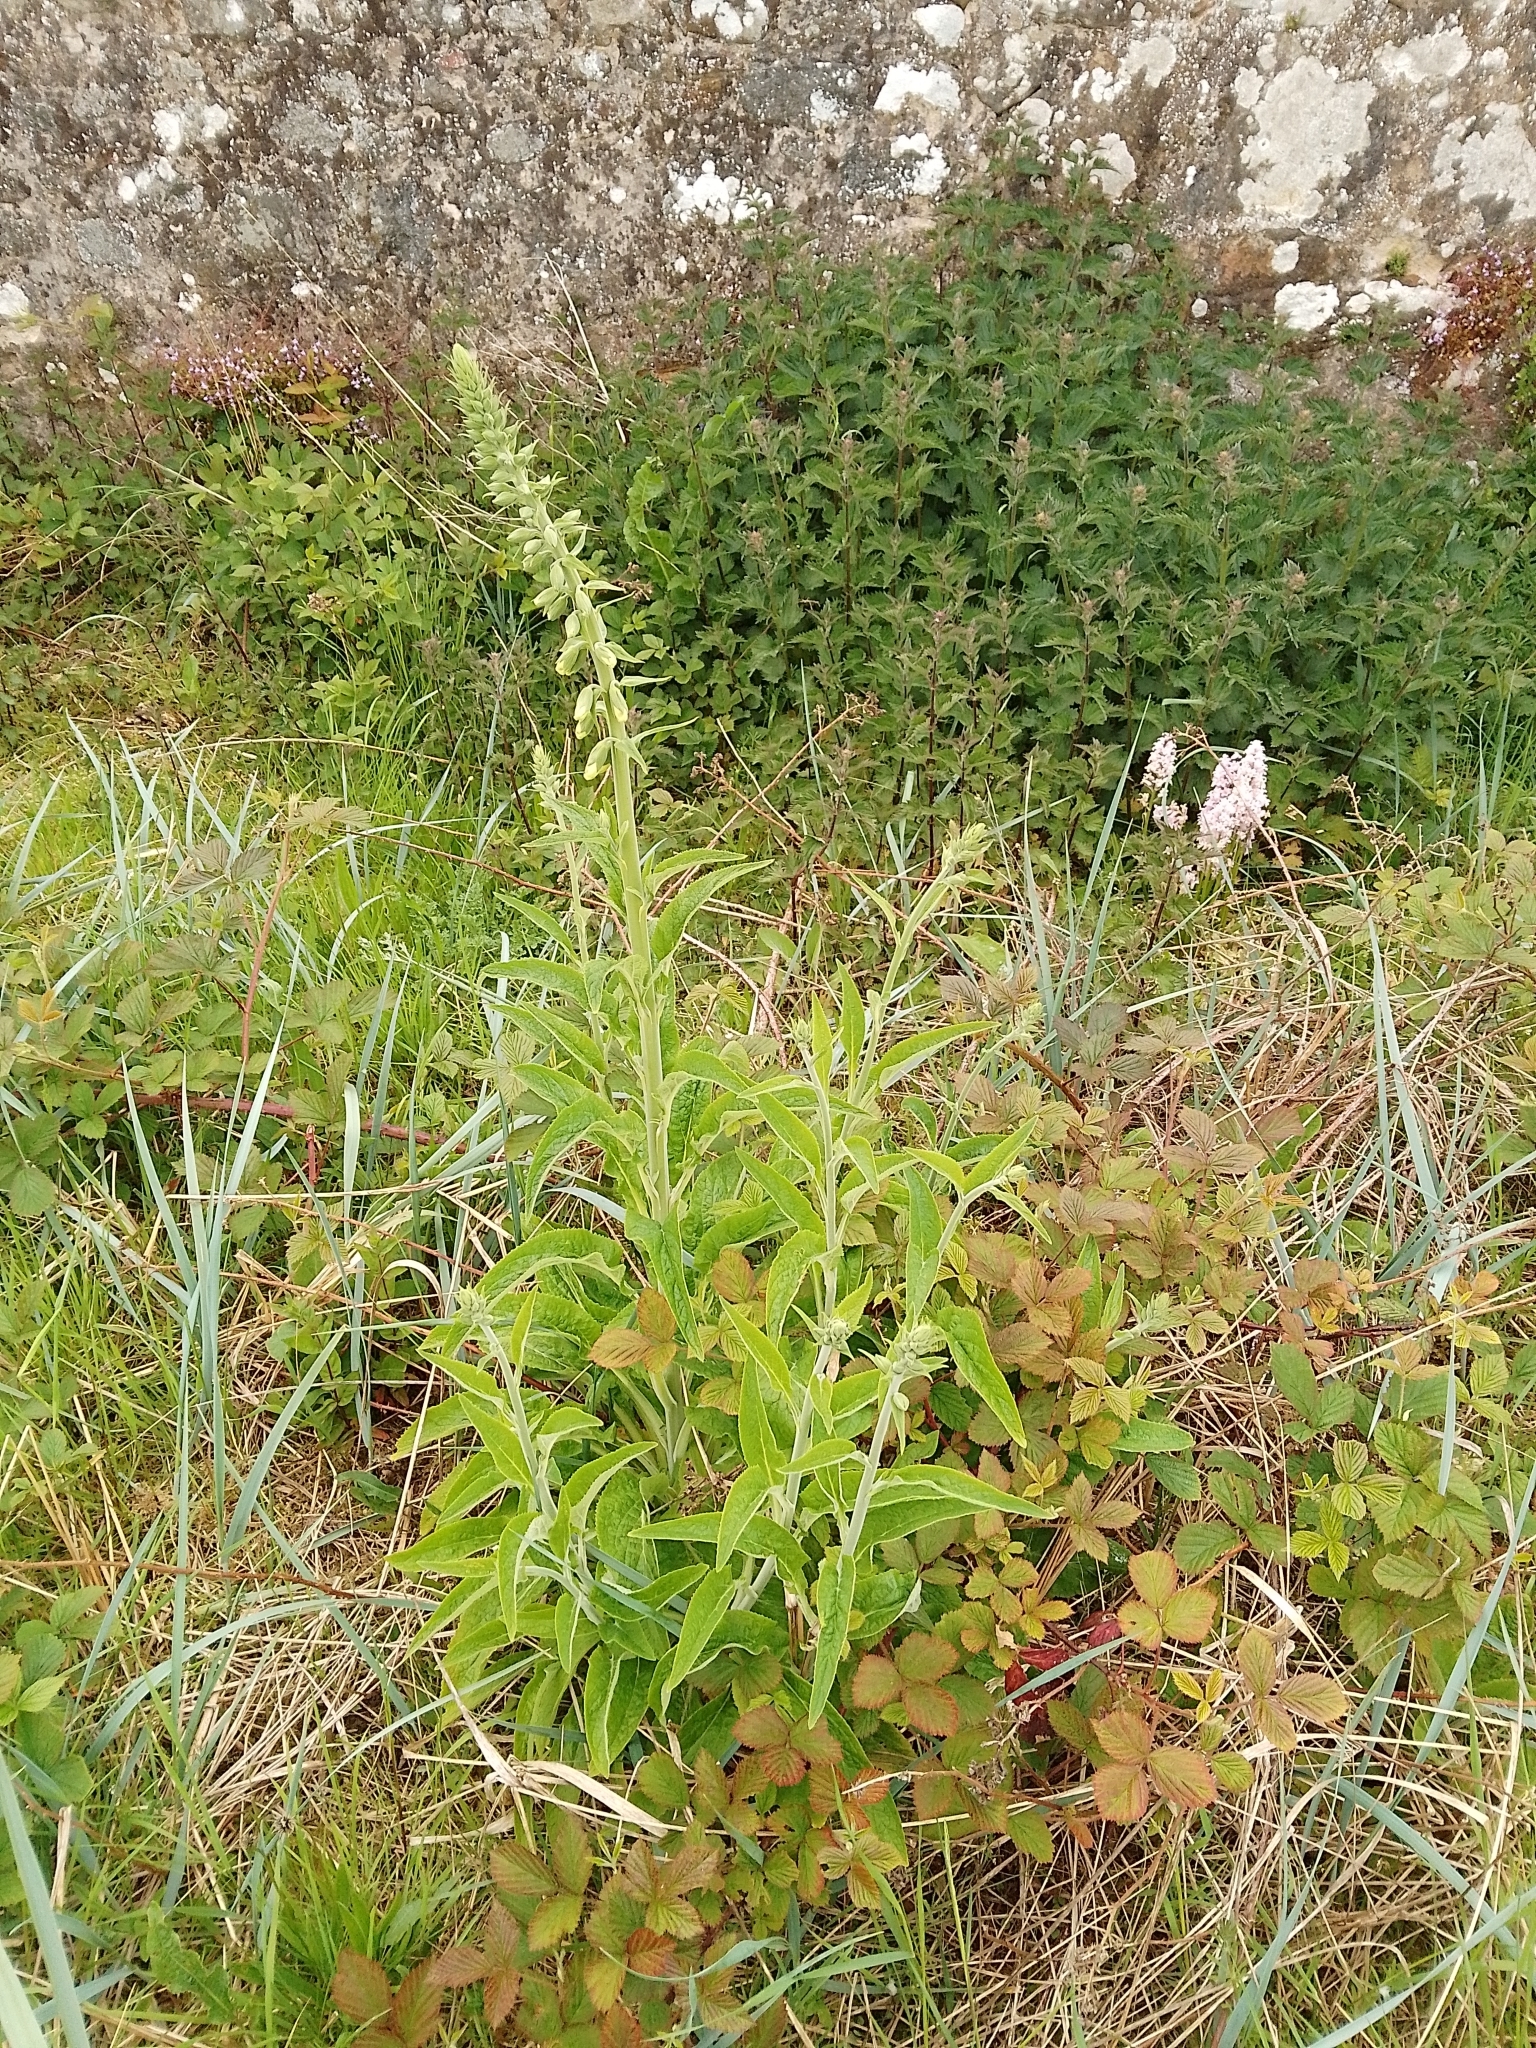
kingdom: Plantae
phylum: Tracheophyta
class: Magnoliopsida
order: Lamiales
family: Plantaginaceae
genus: Digitalis
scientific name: Digitalis purpurea
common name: Foxglove
